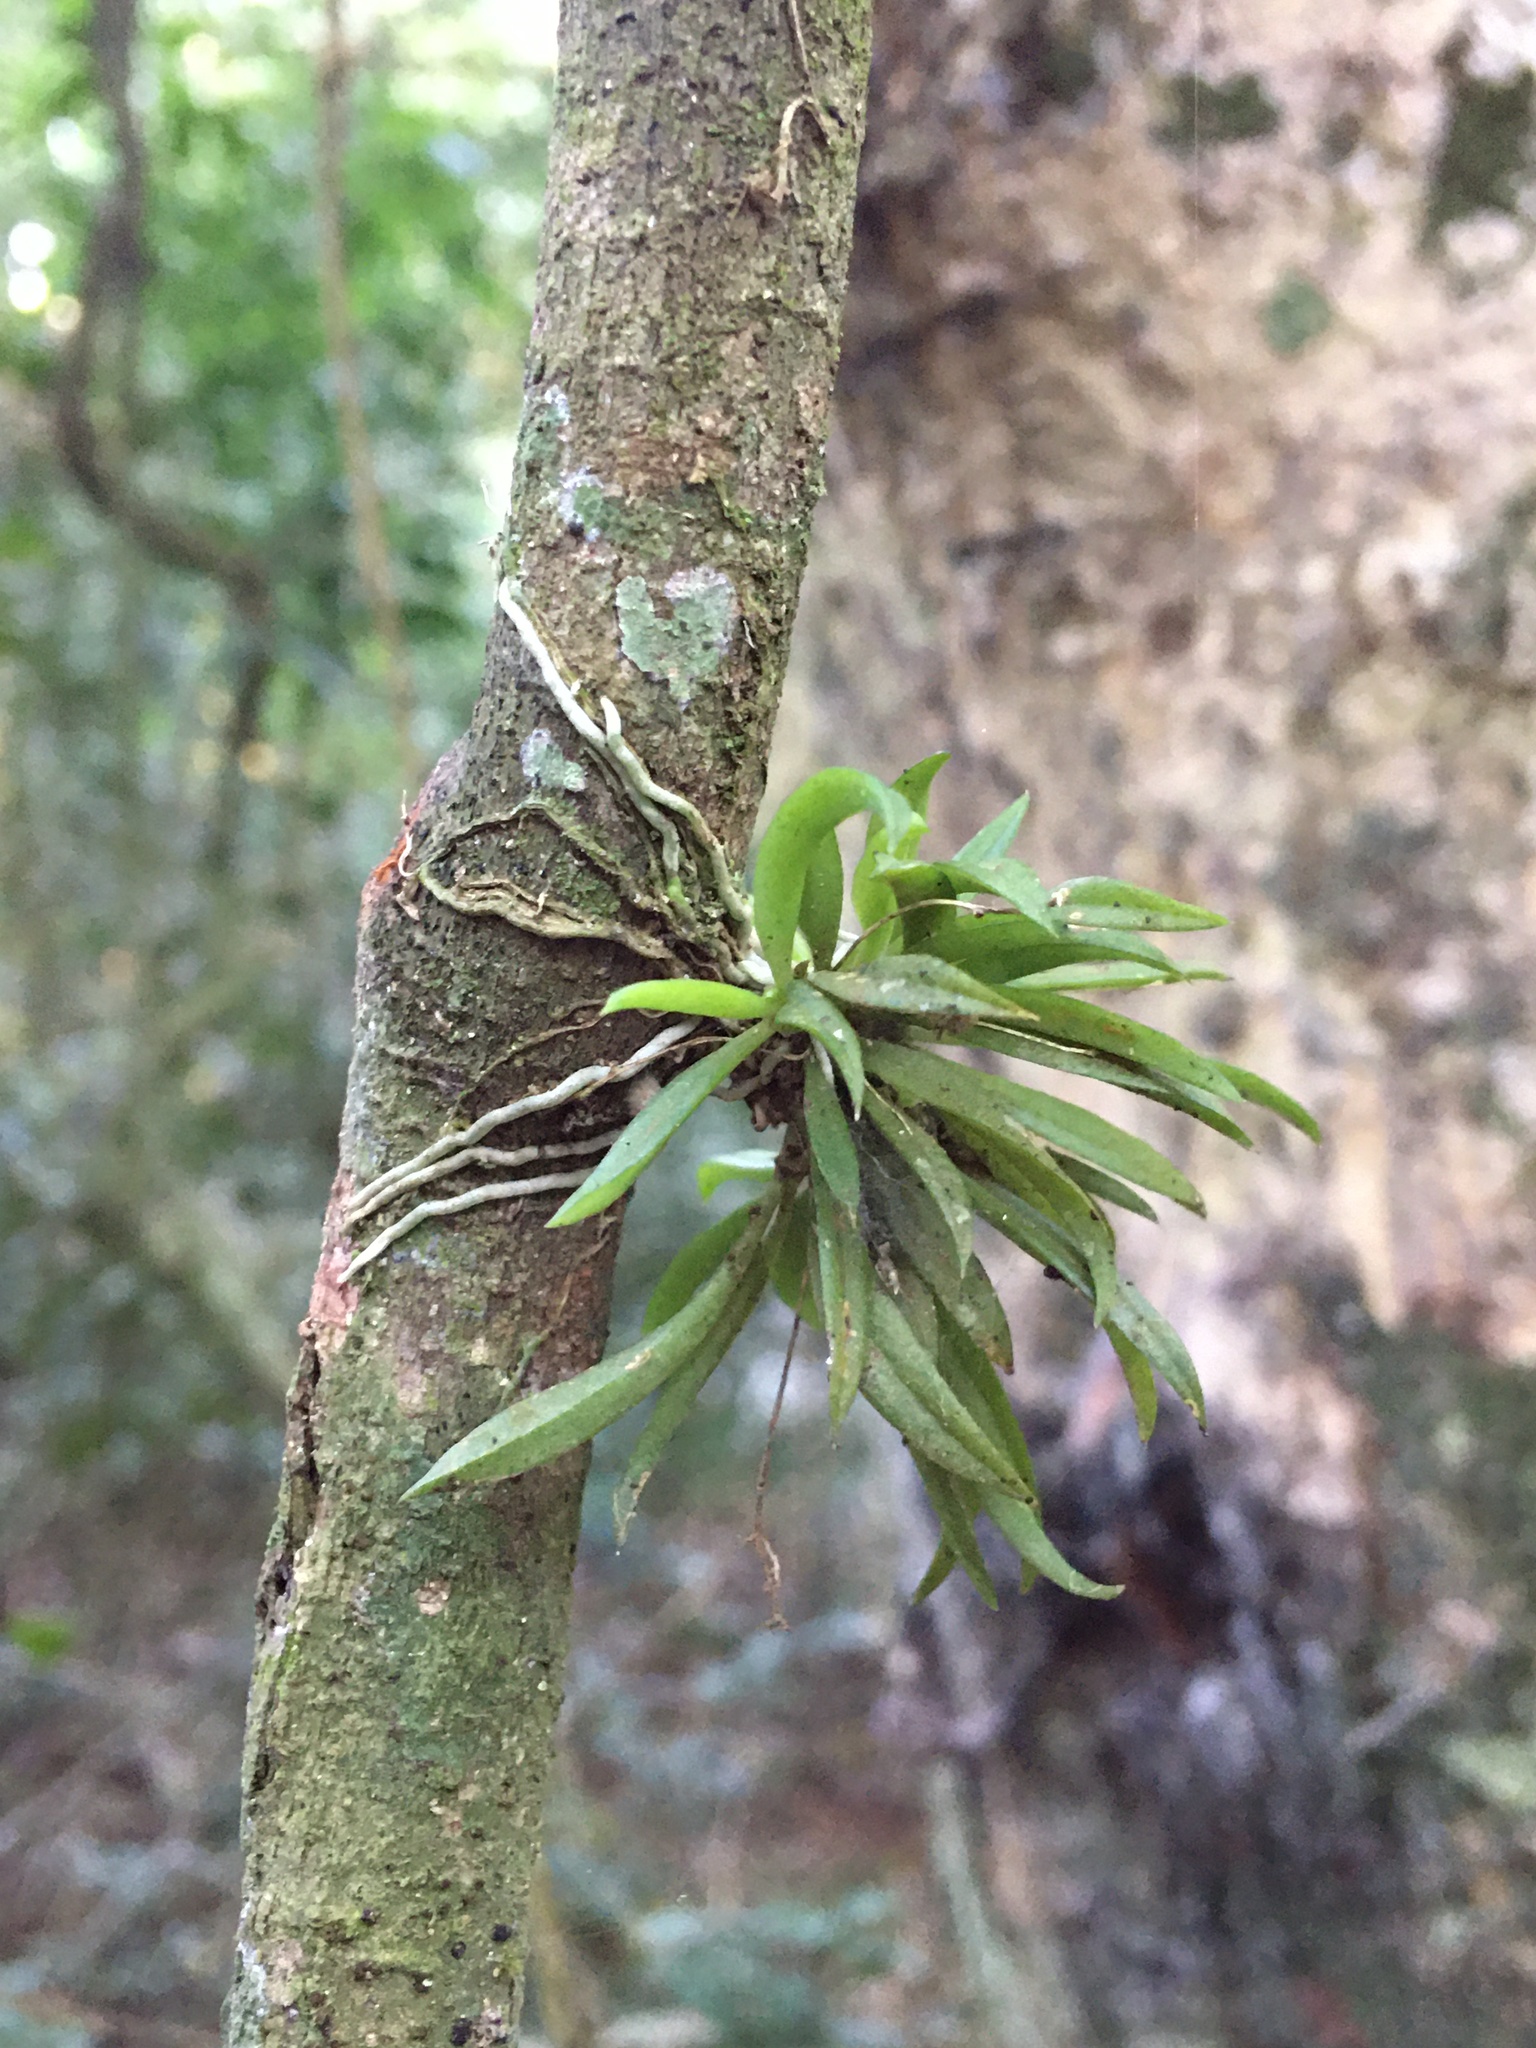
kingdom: Plantae
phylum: Tracheophyta
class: Liliopsida
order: Asparagales
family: Orchidaceae
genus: Zygostates
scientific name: Zygostates alleniana
